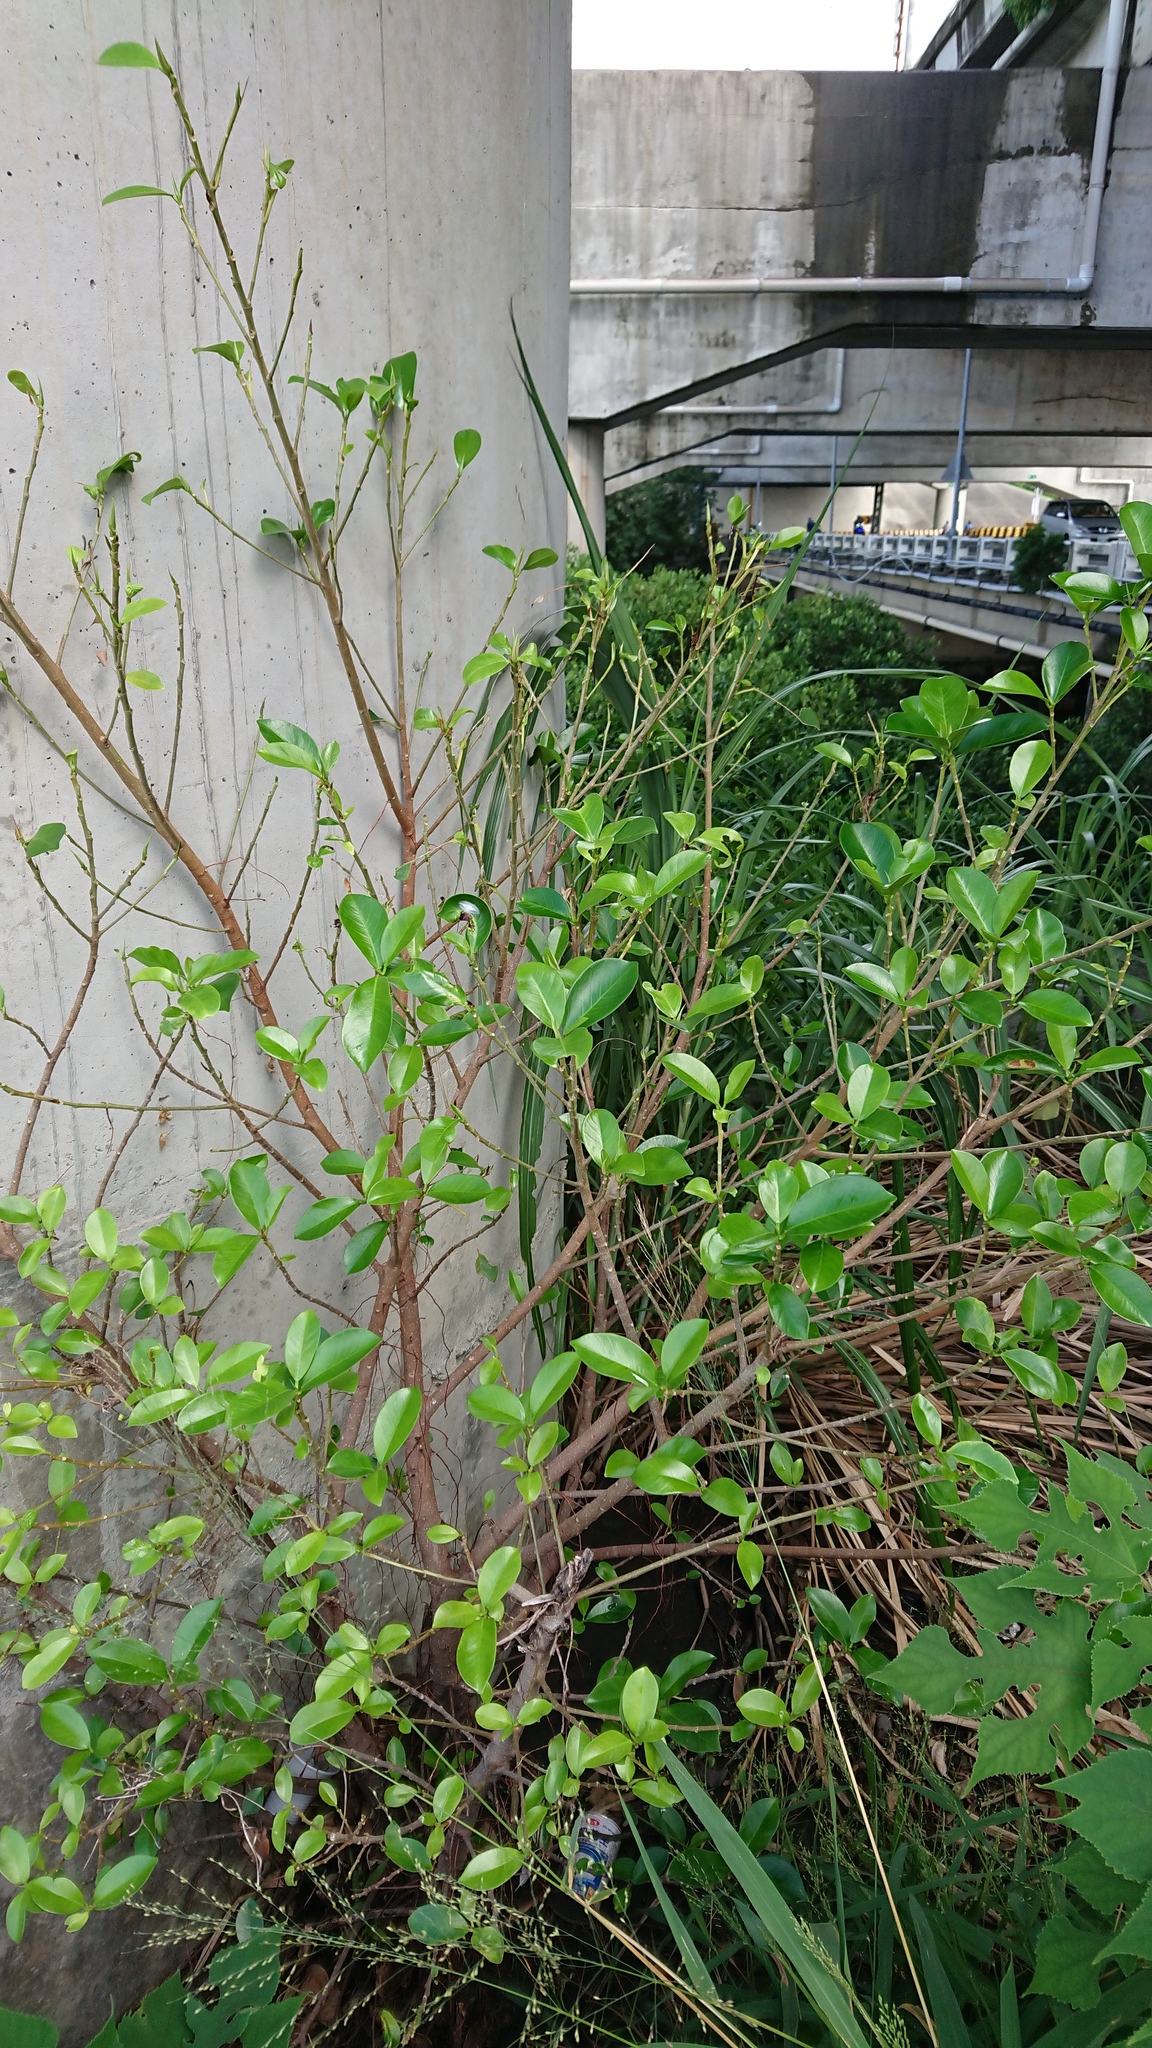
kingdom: Plantae
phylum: Tracheophyta
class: Magnoliopsida
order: Rosales
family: Moraceae
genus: Ficus
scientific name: Ficus microcarpa
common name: Chinese banyan
